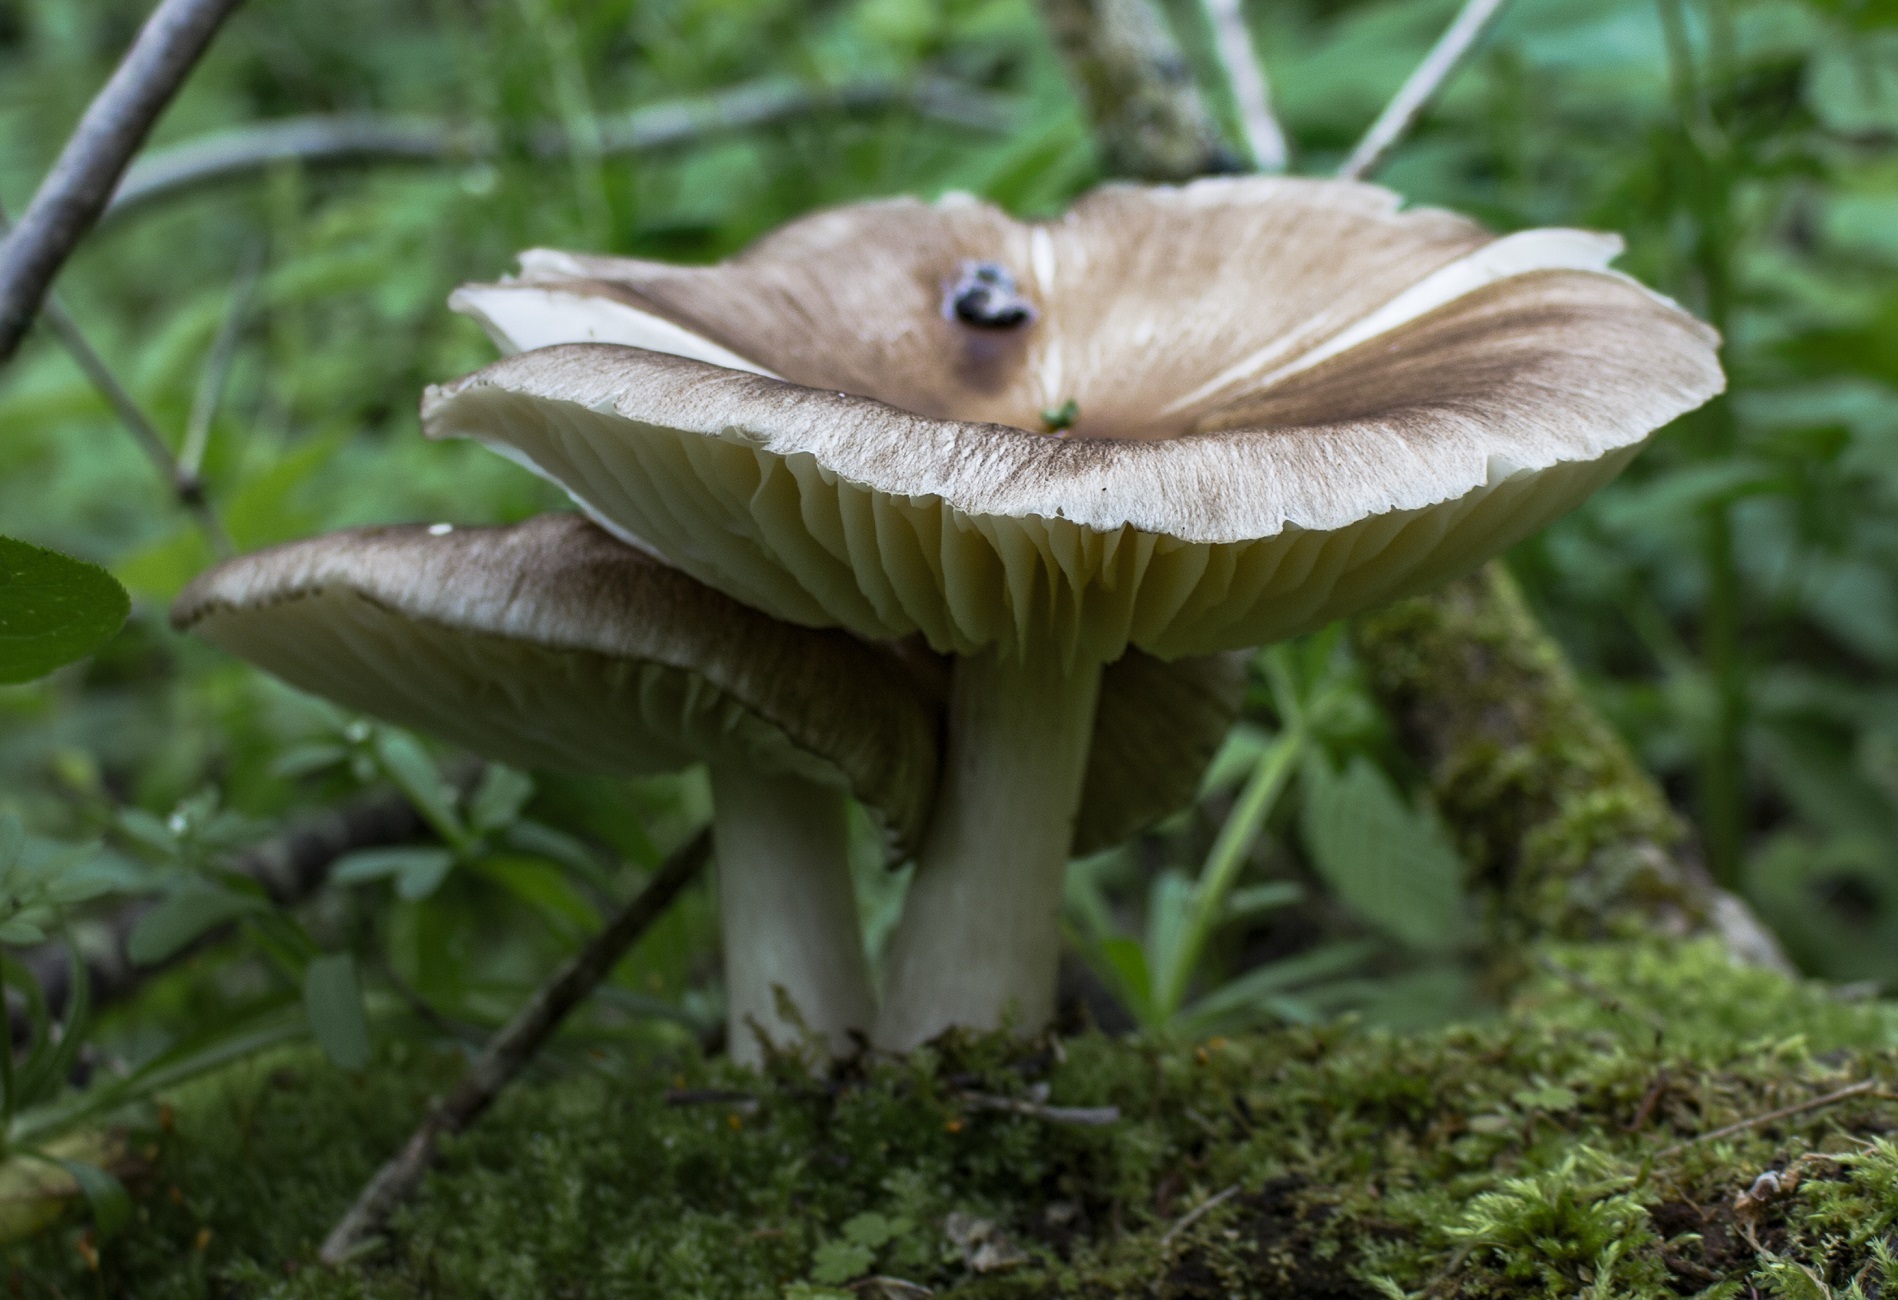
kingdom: Fungi
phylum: Basidiomycota
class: Agaricomycetes
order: Agaricales
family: Tricholomataceae
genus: Megacollybia
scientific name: Megacollybia rodmanii
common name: Eastern american platterful mushroom
